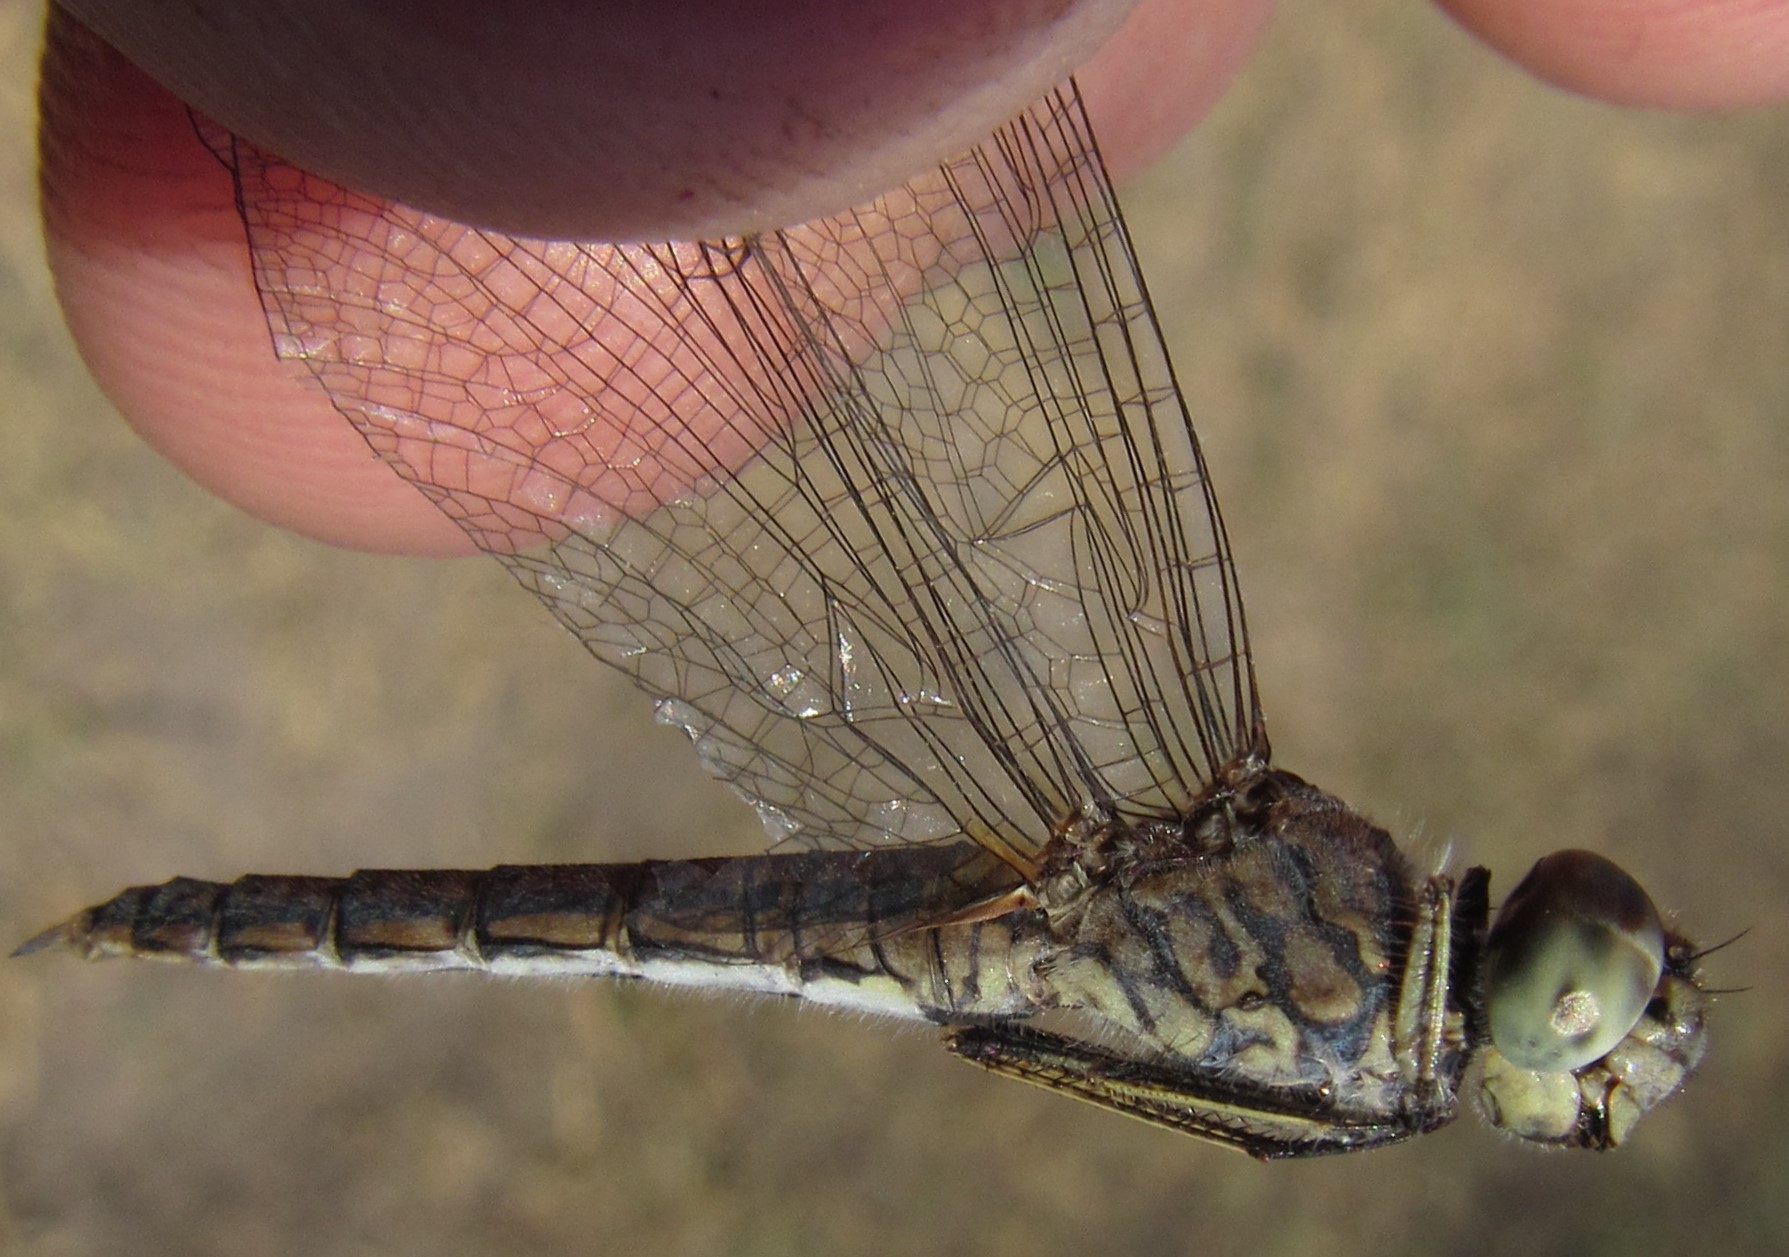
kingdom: Animalia
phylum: Arthropoda
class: Insecta
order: Odonata
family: Libellulidae
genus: Brachythemis
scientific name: Brachythemis leucosticta
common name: Banded groundling
